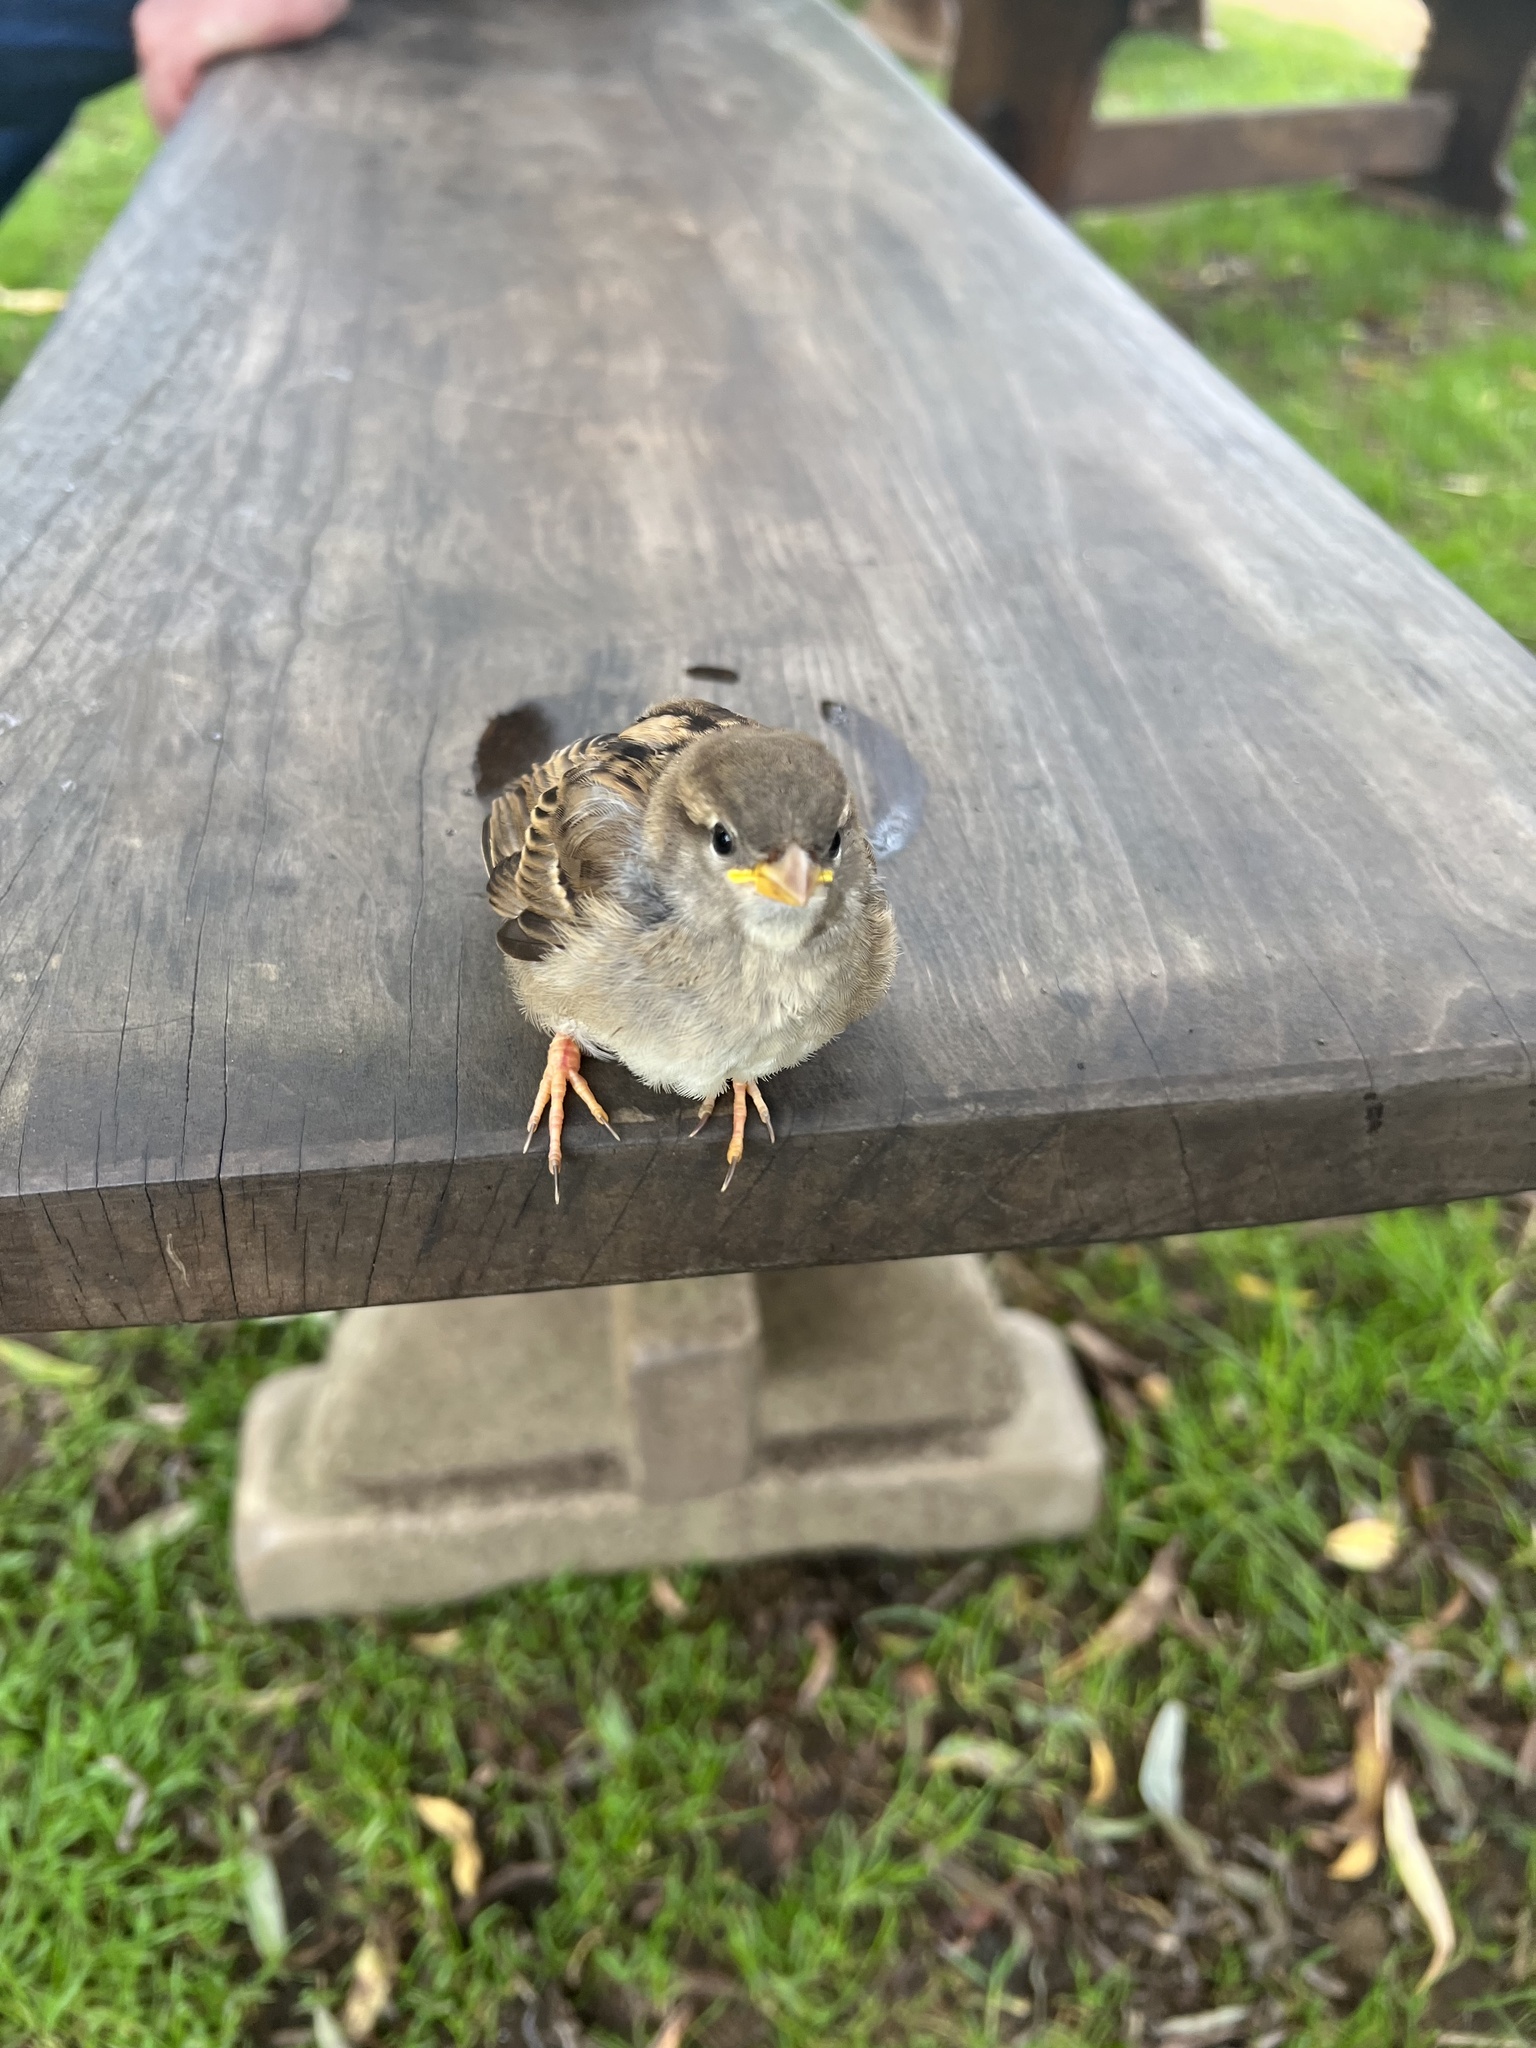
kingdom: Animalia
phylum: Chordata
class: Aves
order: Passeriformes
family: Passeridae
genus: Passer
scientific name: Passer domesticus
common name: House sparrow
